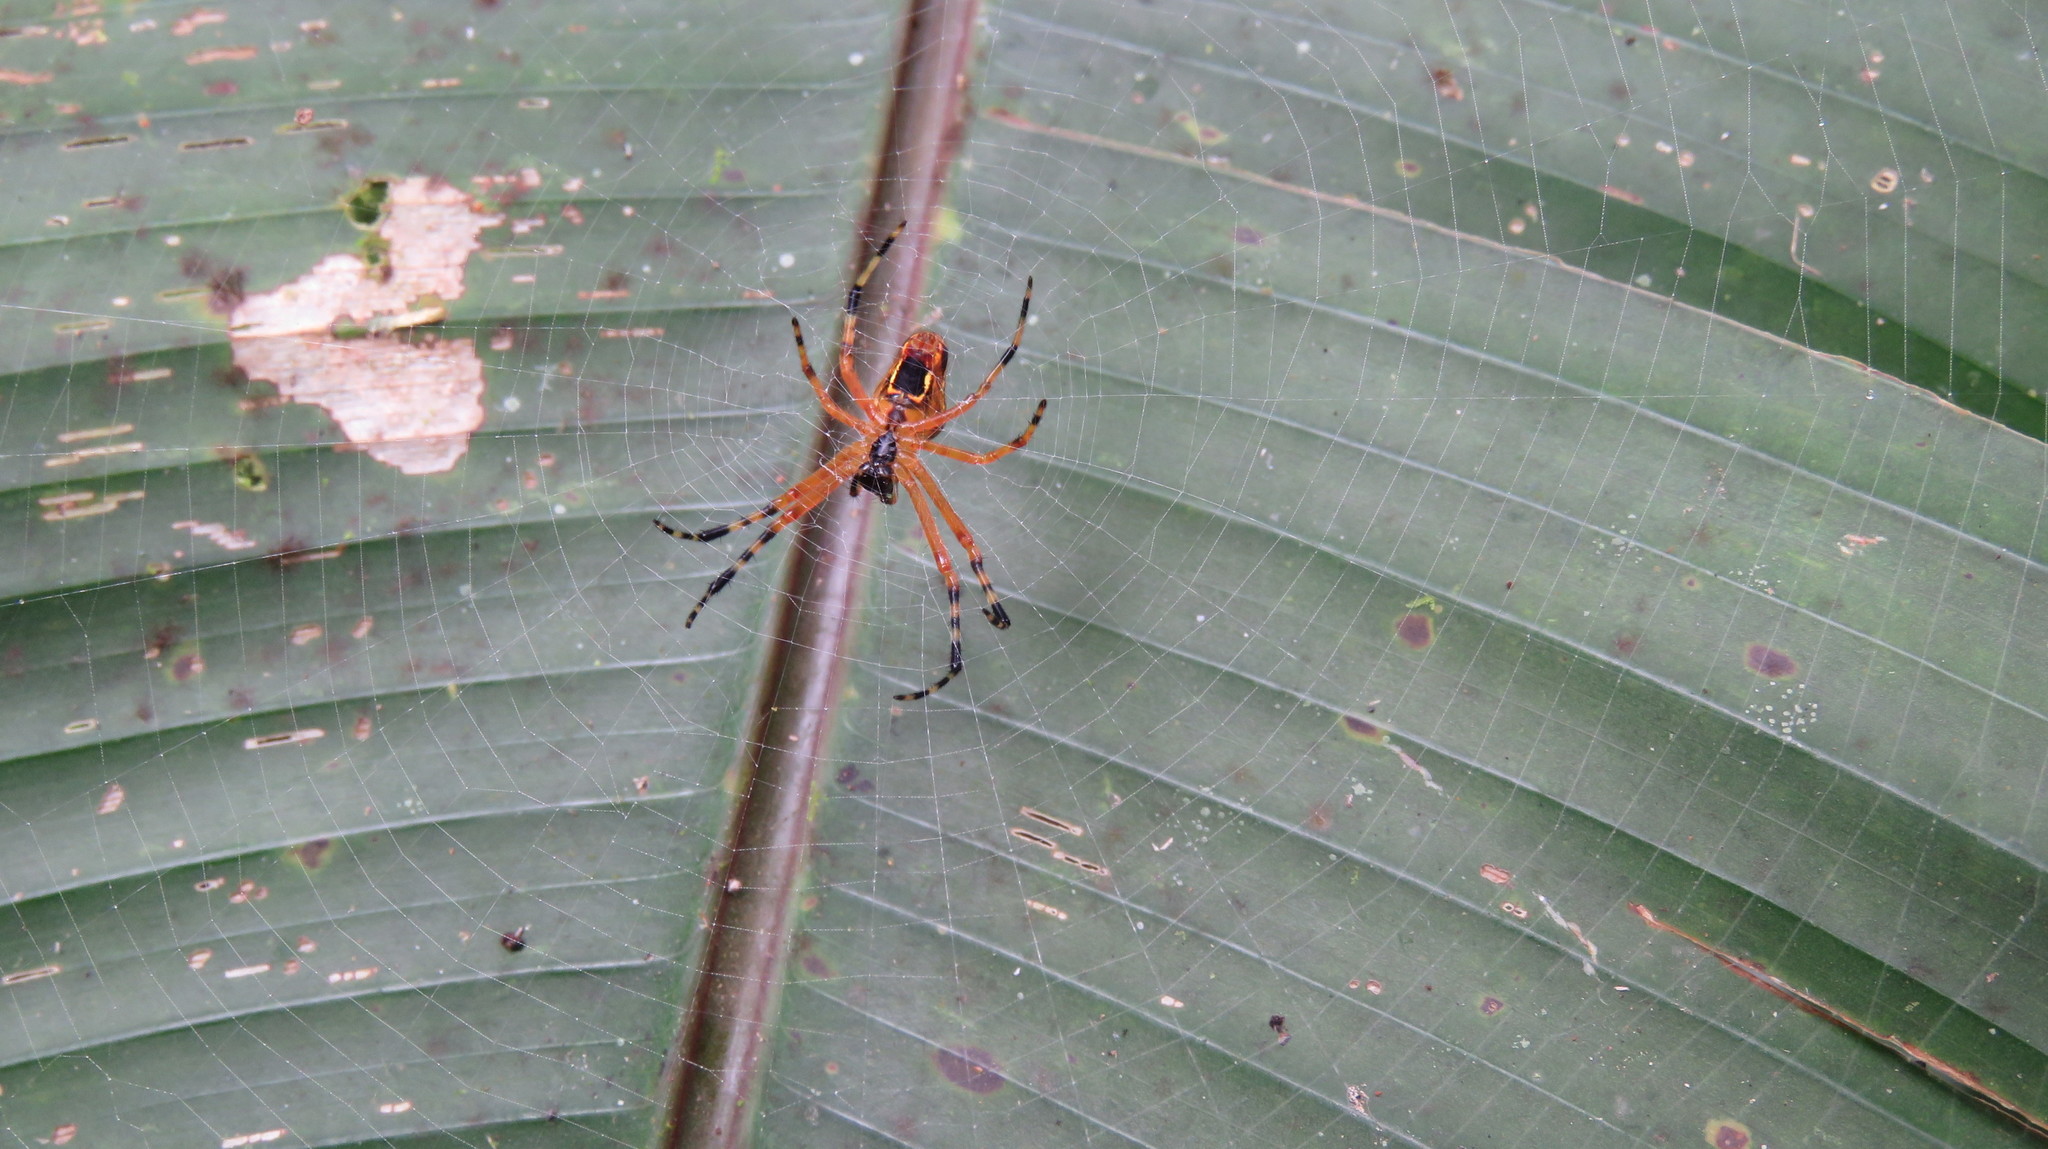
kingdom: Animalia
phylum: Arthropoda
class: Arachnida
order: Araneae
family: Araneidae
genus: Eriophora
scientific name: Eriophora nephiloides
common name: Orb weavers
